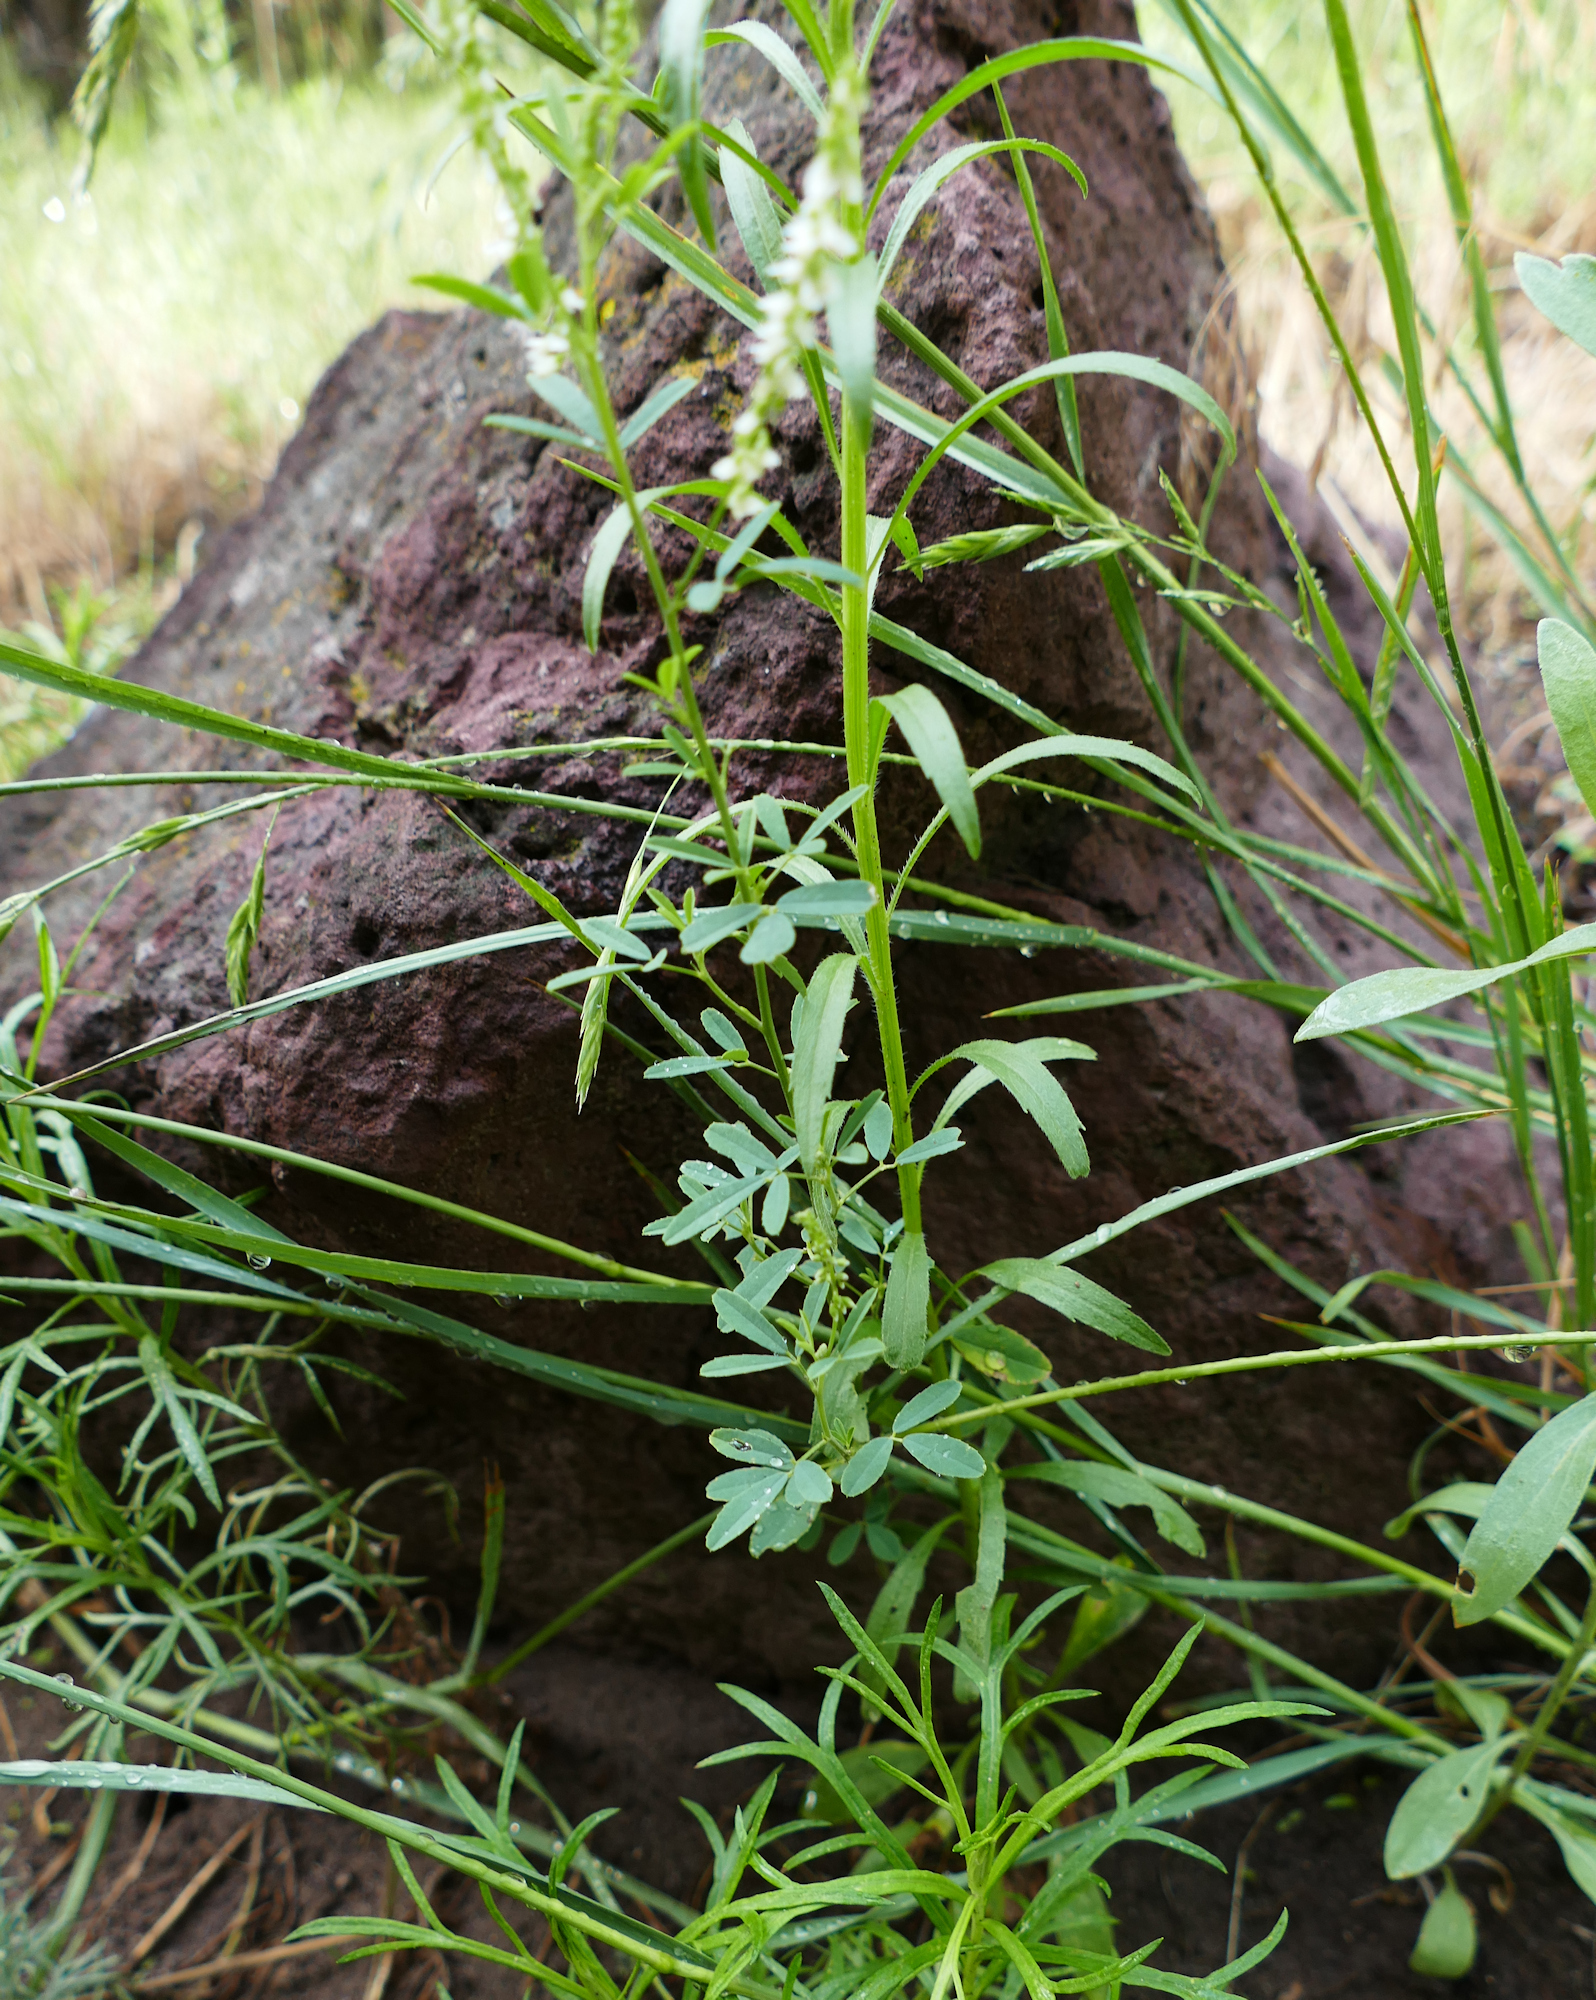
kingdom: Plantae
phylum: Tracheophyta
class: Magnoliopsida
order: Fabales
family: Fabaceae
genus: Melilotus
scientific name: Melilotus albus
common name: White melilot
